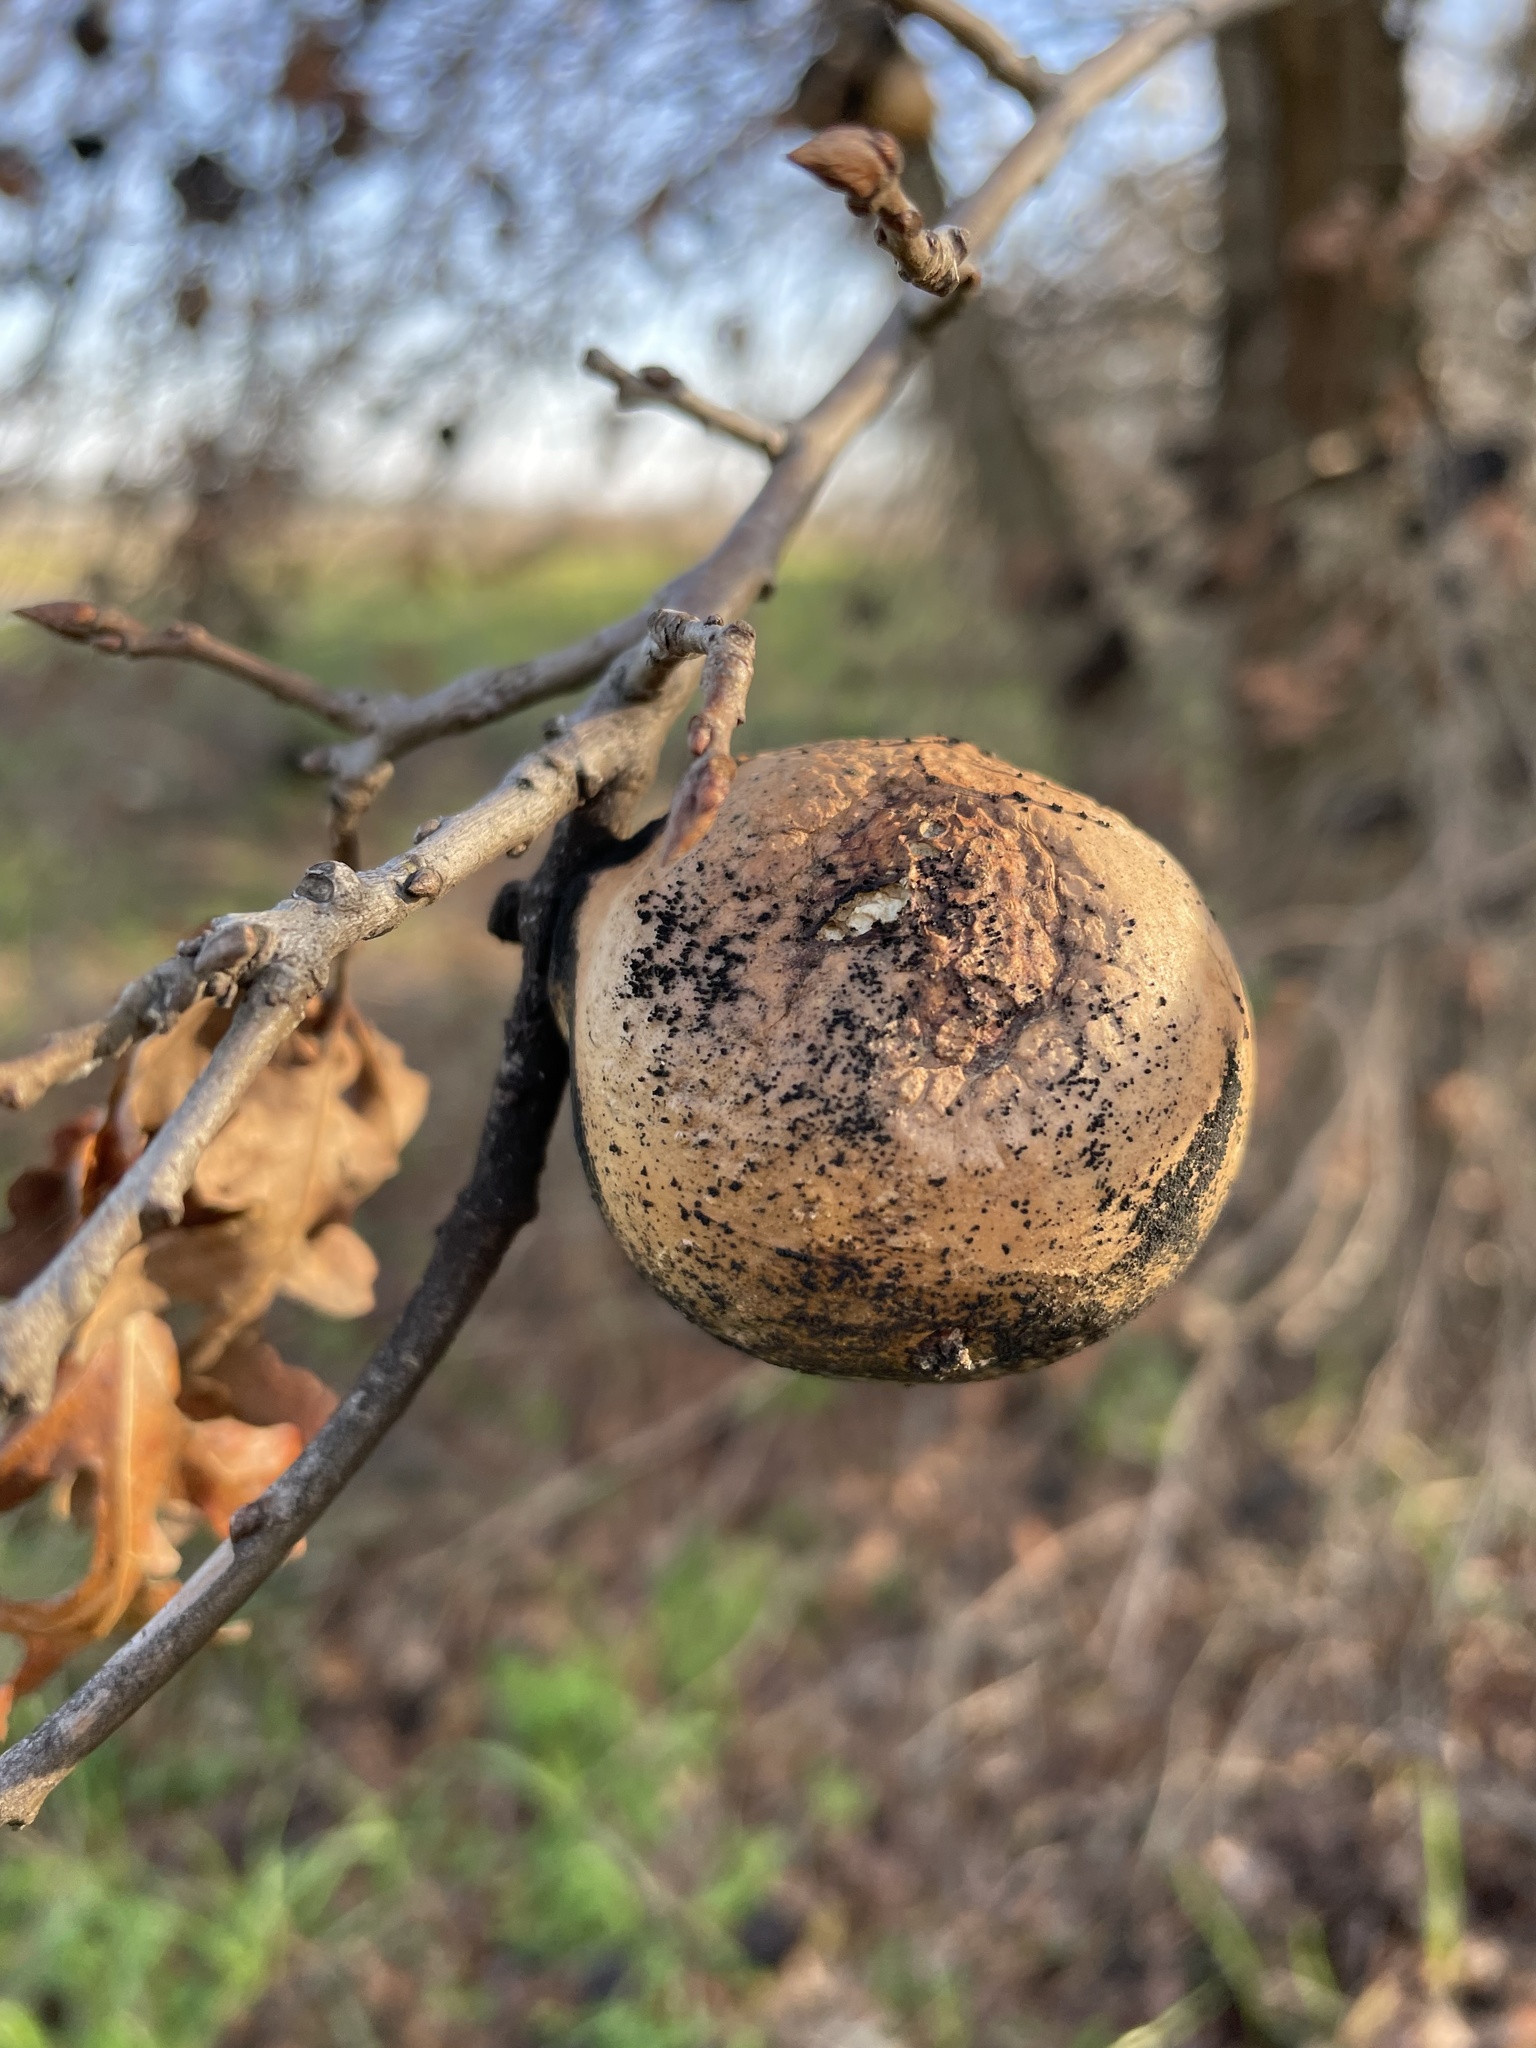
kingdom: Animalia
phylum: Arthropoda
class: Insecta
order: Hymenoptera
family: Cynipidae
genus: Andricus
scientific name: Andricus quercuscalifornicus
